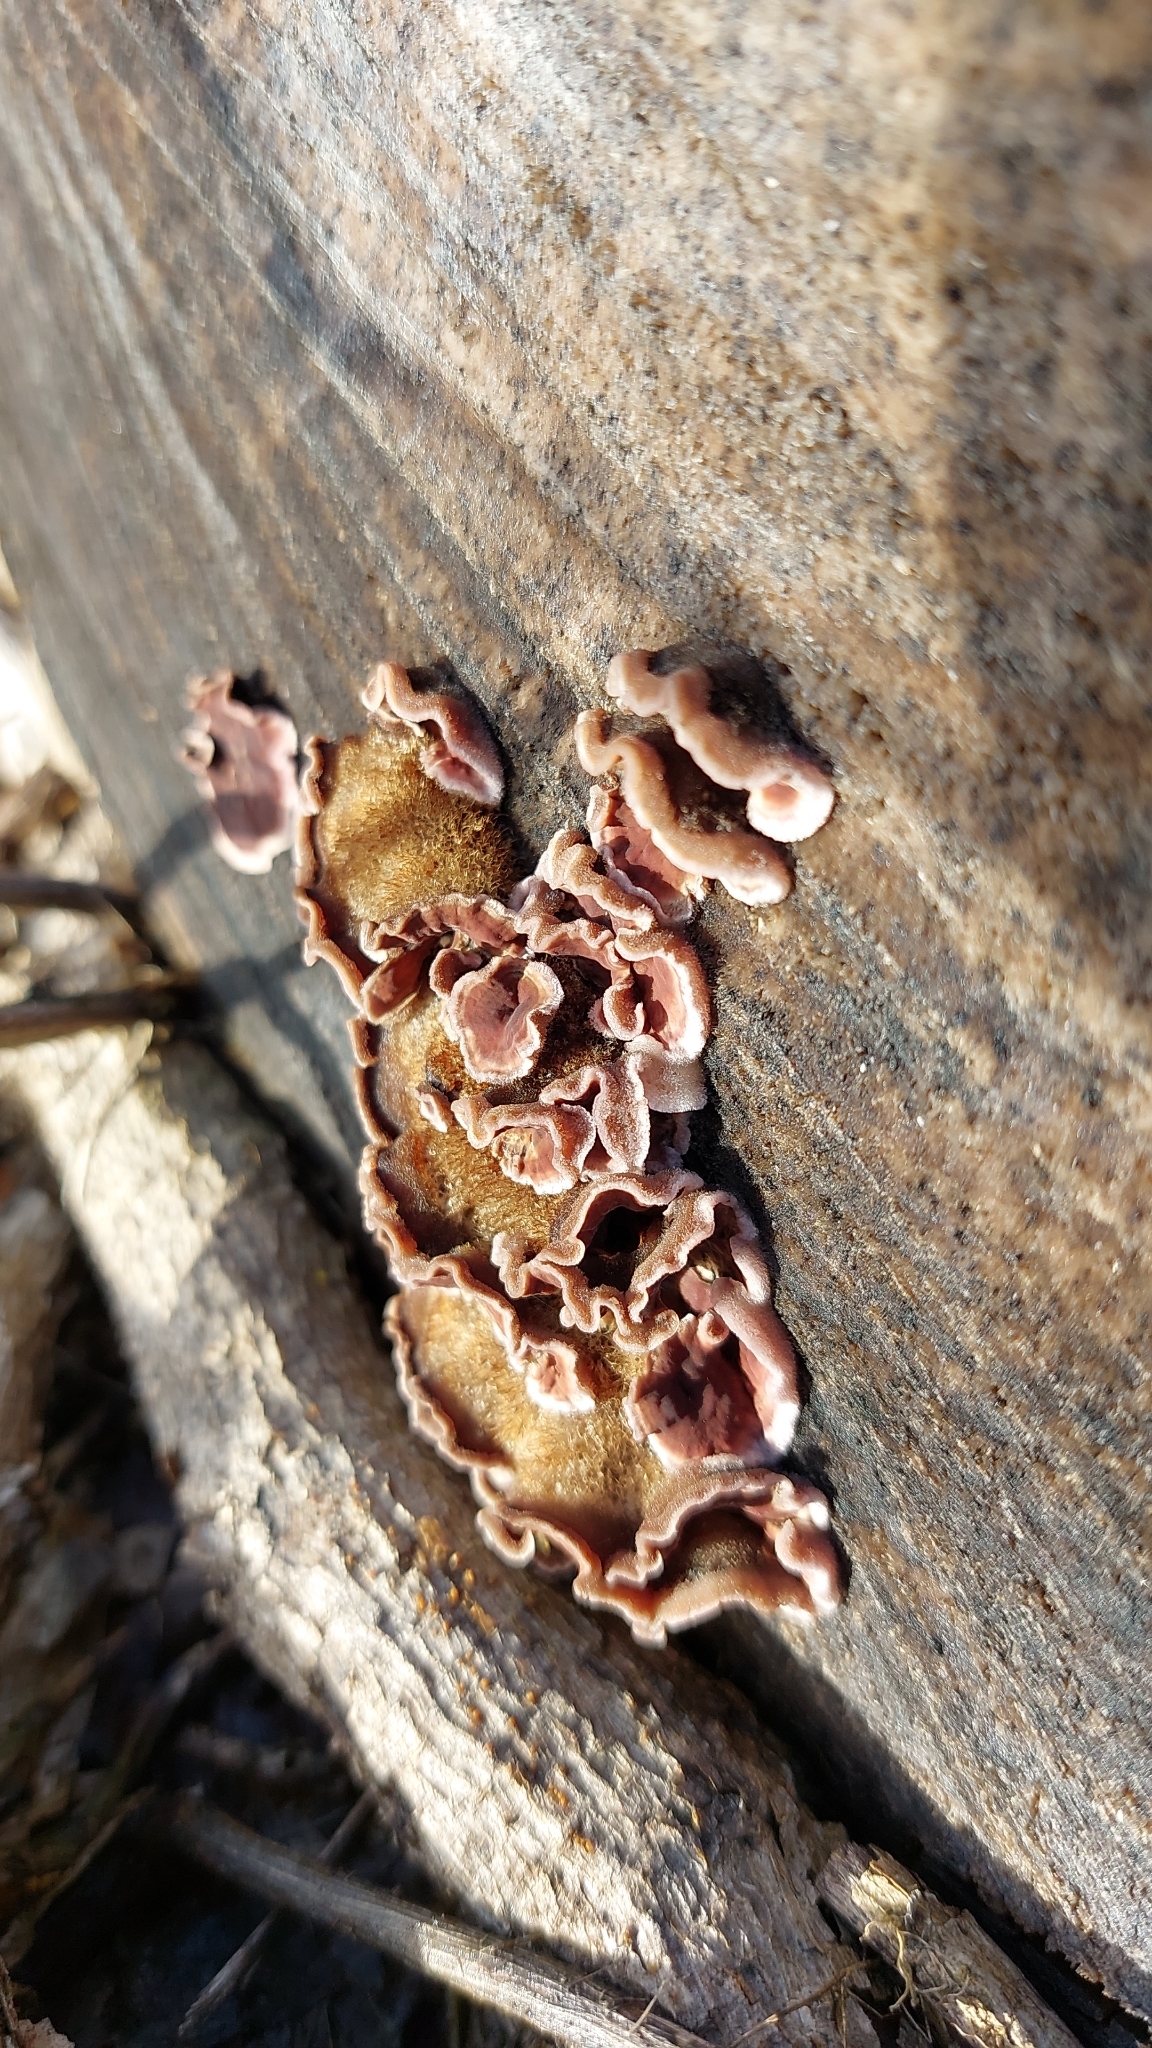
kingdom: Fungi
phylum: Basidiomycota
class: Agaricomycetes
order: Agaricales
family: Cyphellaceae
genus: Chondrostereum
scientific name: Chondrostereum purpureum
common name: Silver leaf disease
